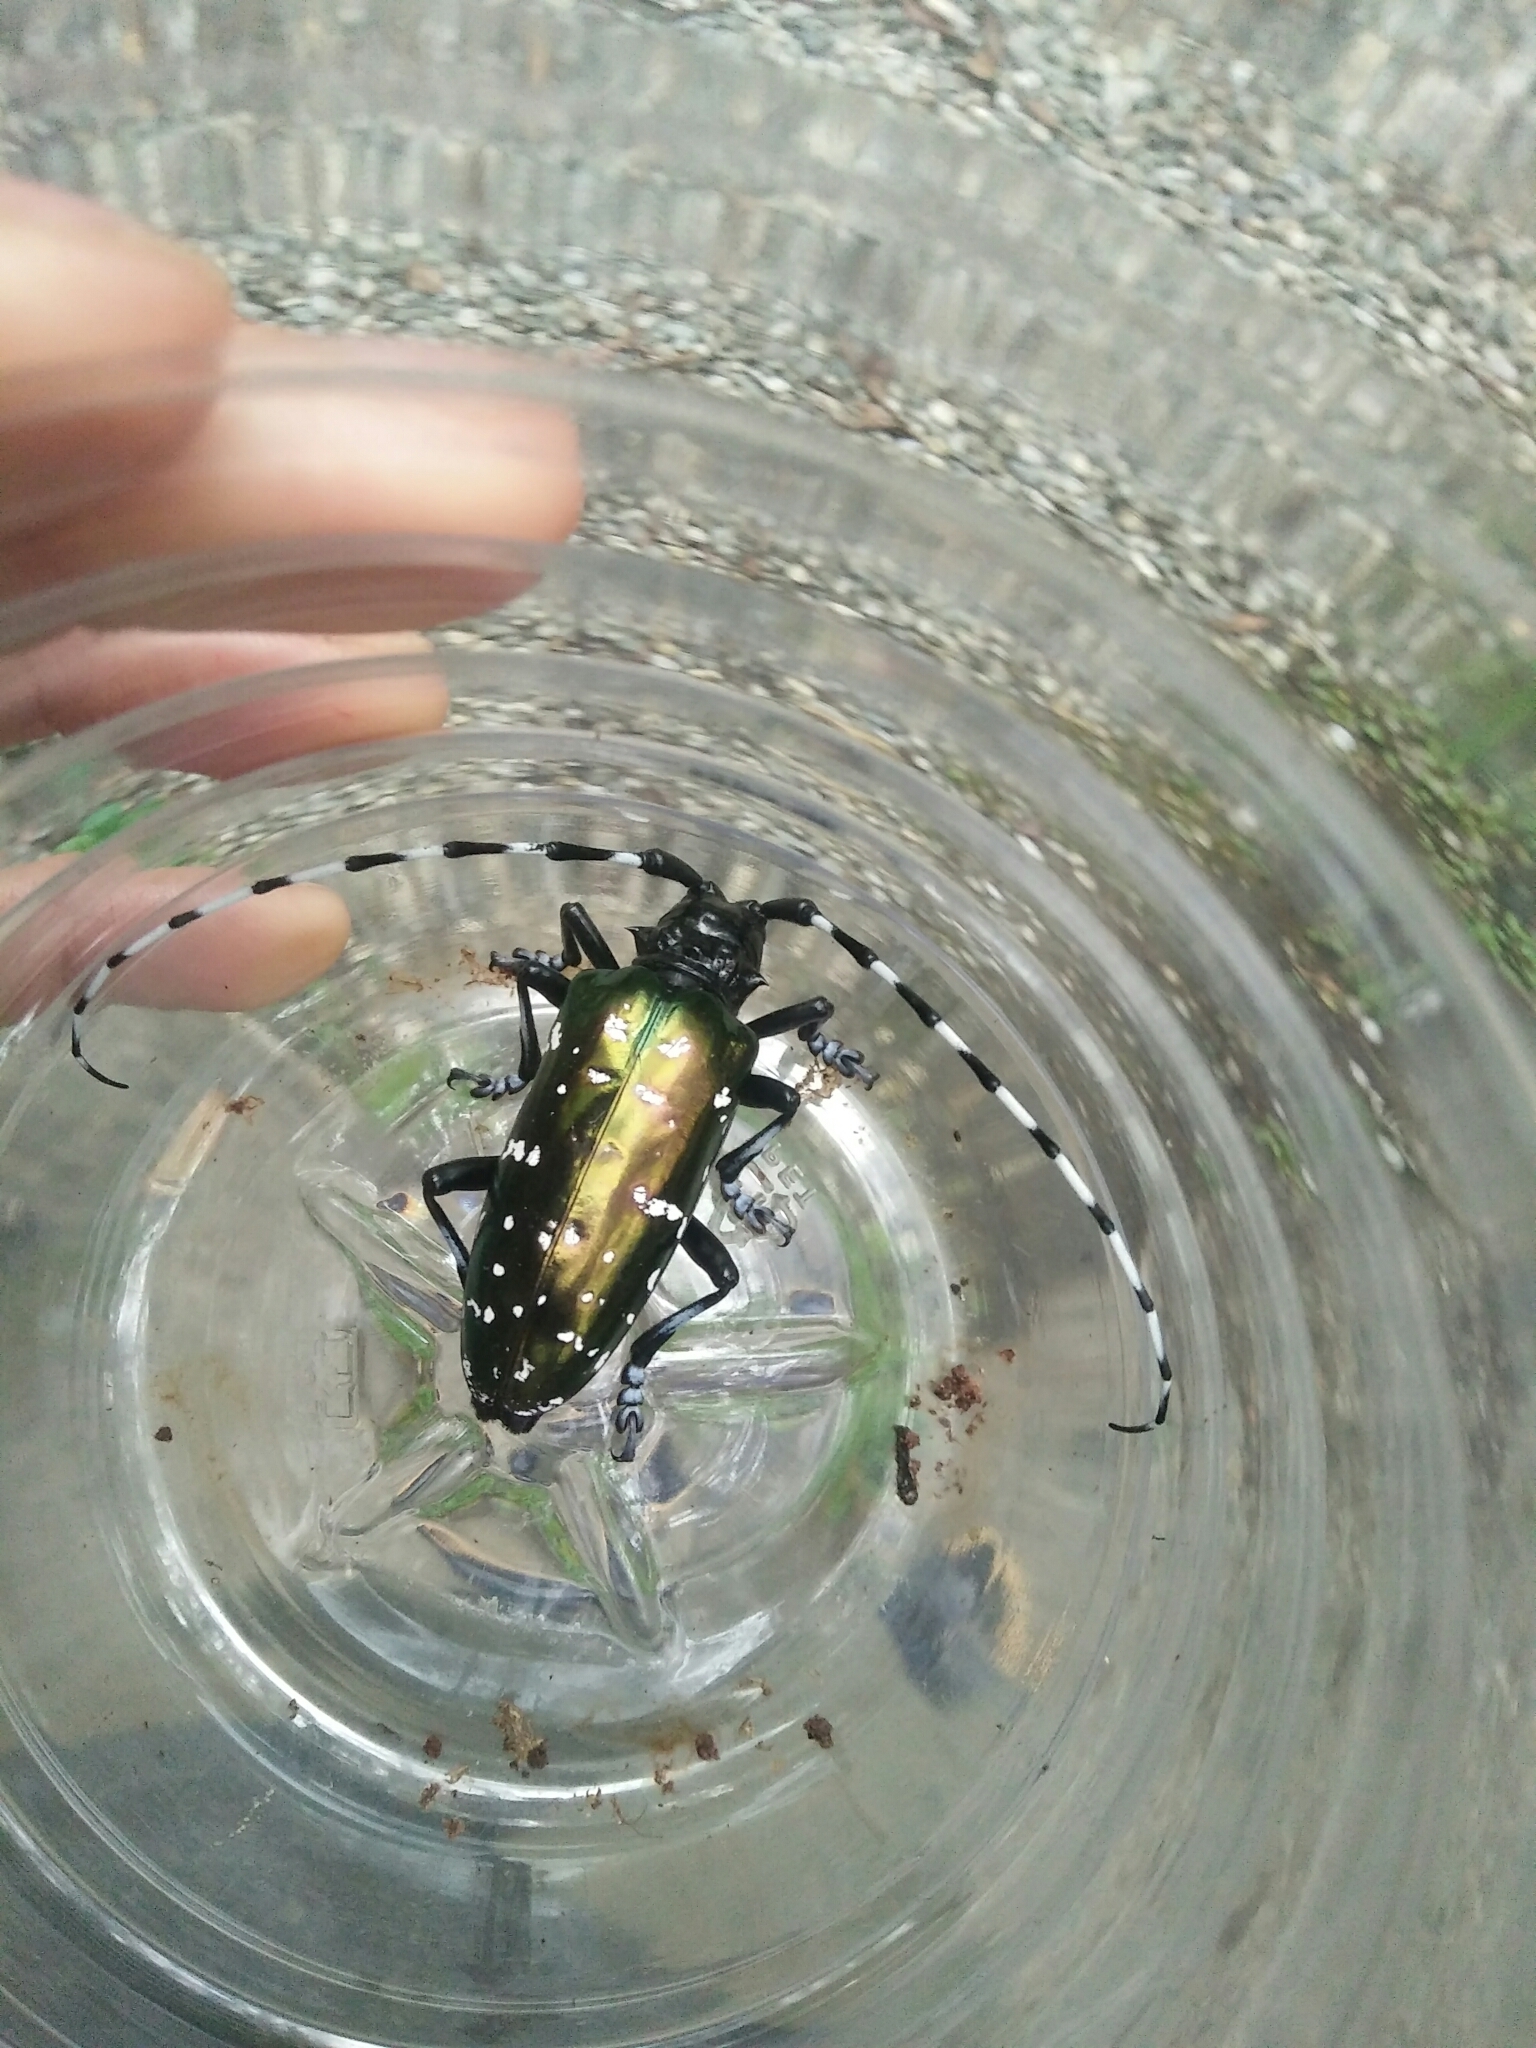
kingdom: Animalia
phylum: Arthropoda
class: Insecta
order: Coleoptera
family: Cerambycidae
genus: Anoplophora
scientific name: Anoplophora albopicta
